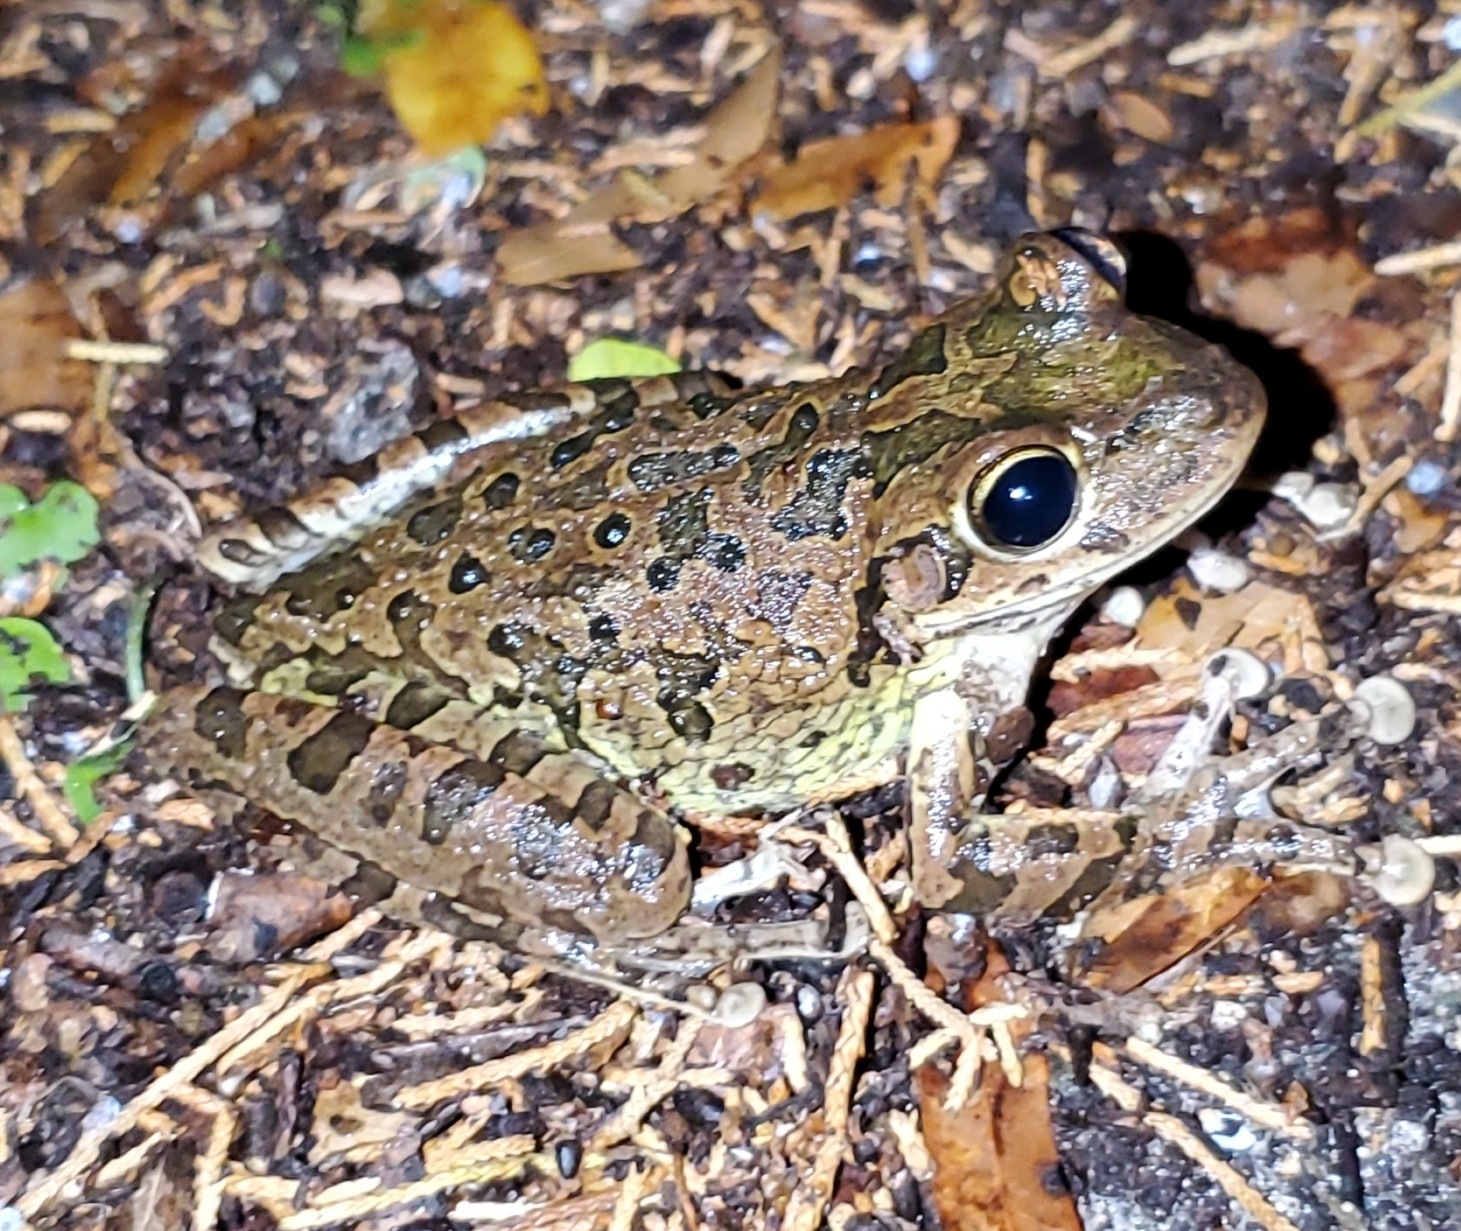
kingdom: Animalia
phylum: Chordata
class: Amphibia
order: Anura
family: Hylidae
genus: Osteopilus
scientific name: Osteopilus septentrionalis
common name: Cuban treefrog
